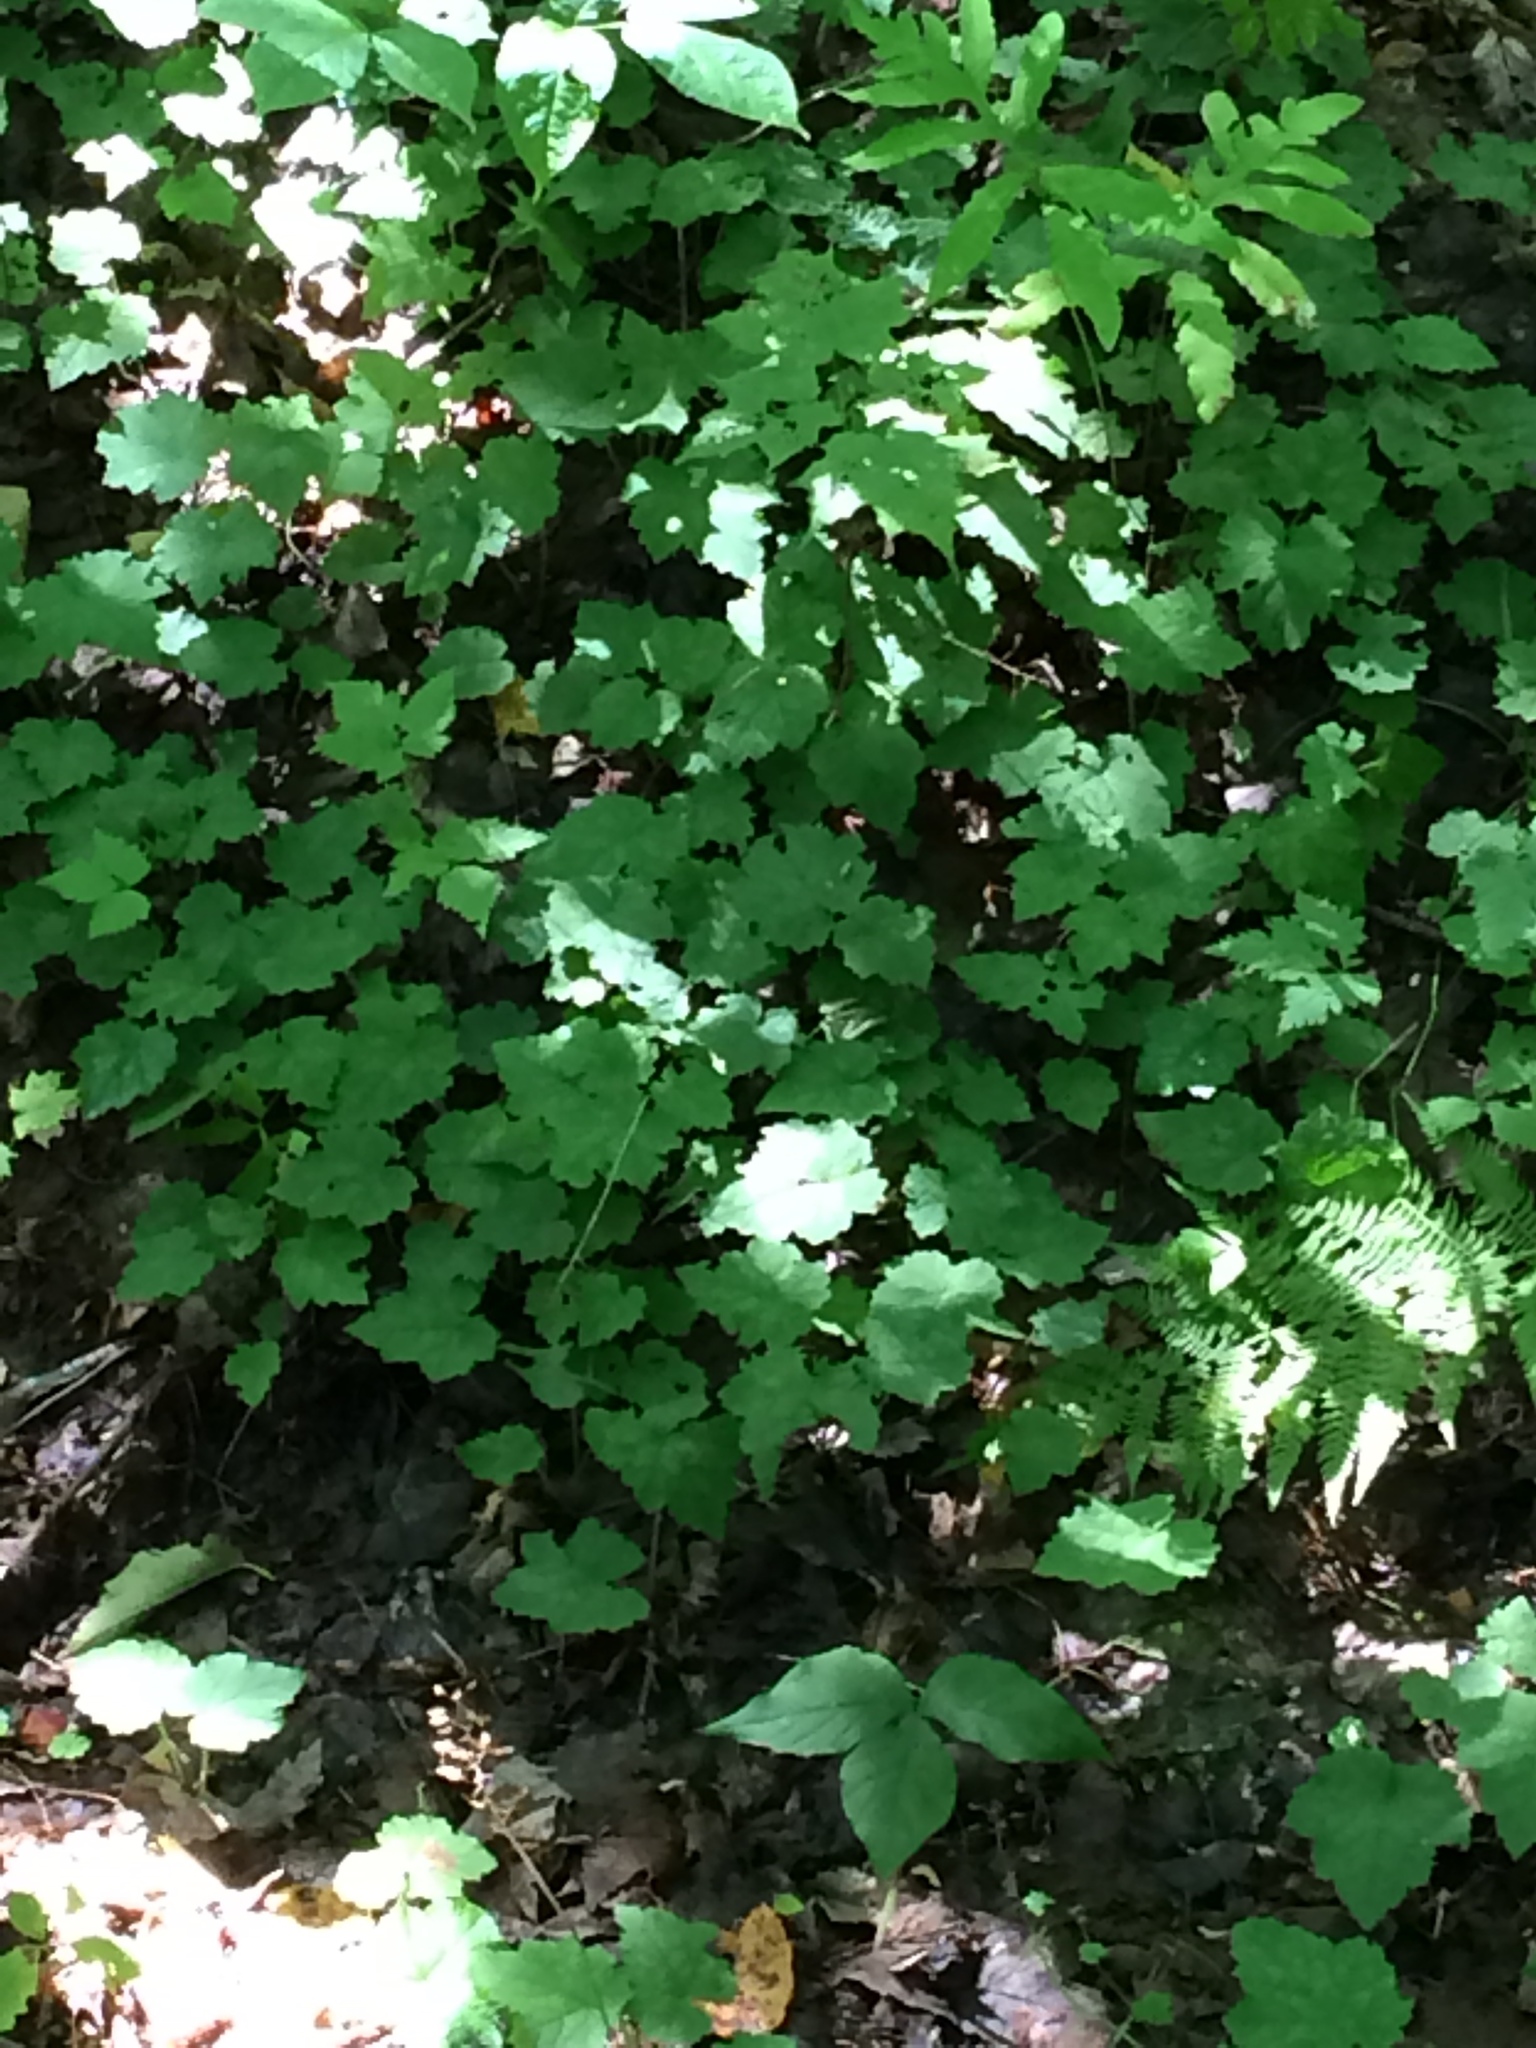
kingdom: Plantae
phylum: Tracheophyta
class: Magnoliopsida
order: Saxifragales
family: Saxifragaceae
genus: Tiarella
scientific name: Tiarella stolonifera
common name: Stoloniferous foamflower
